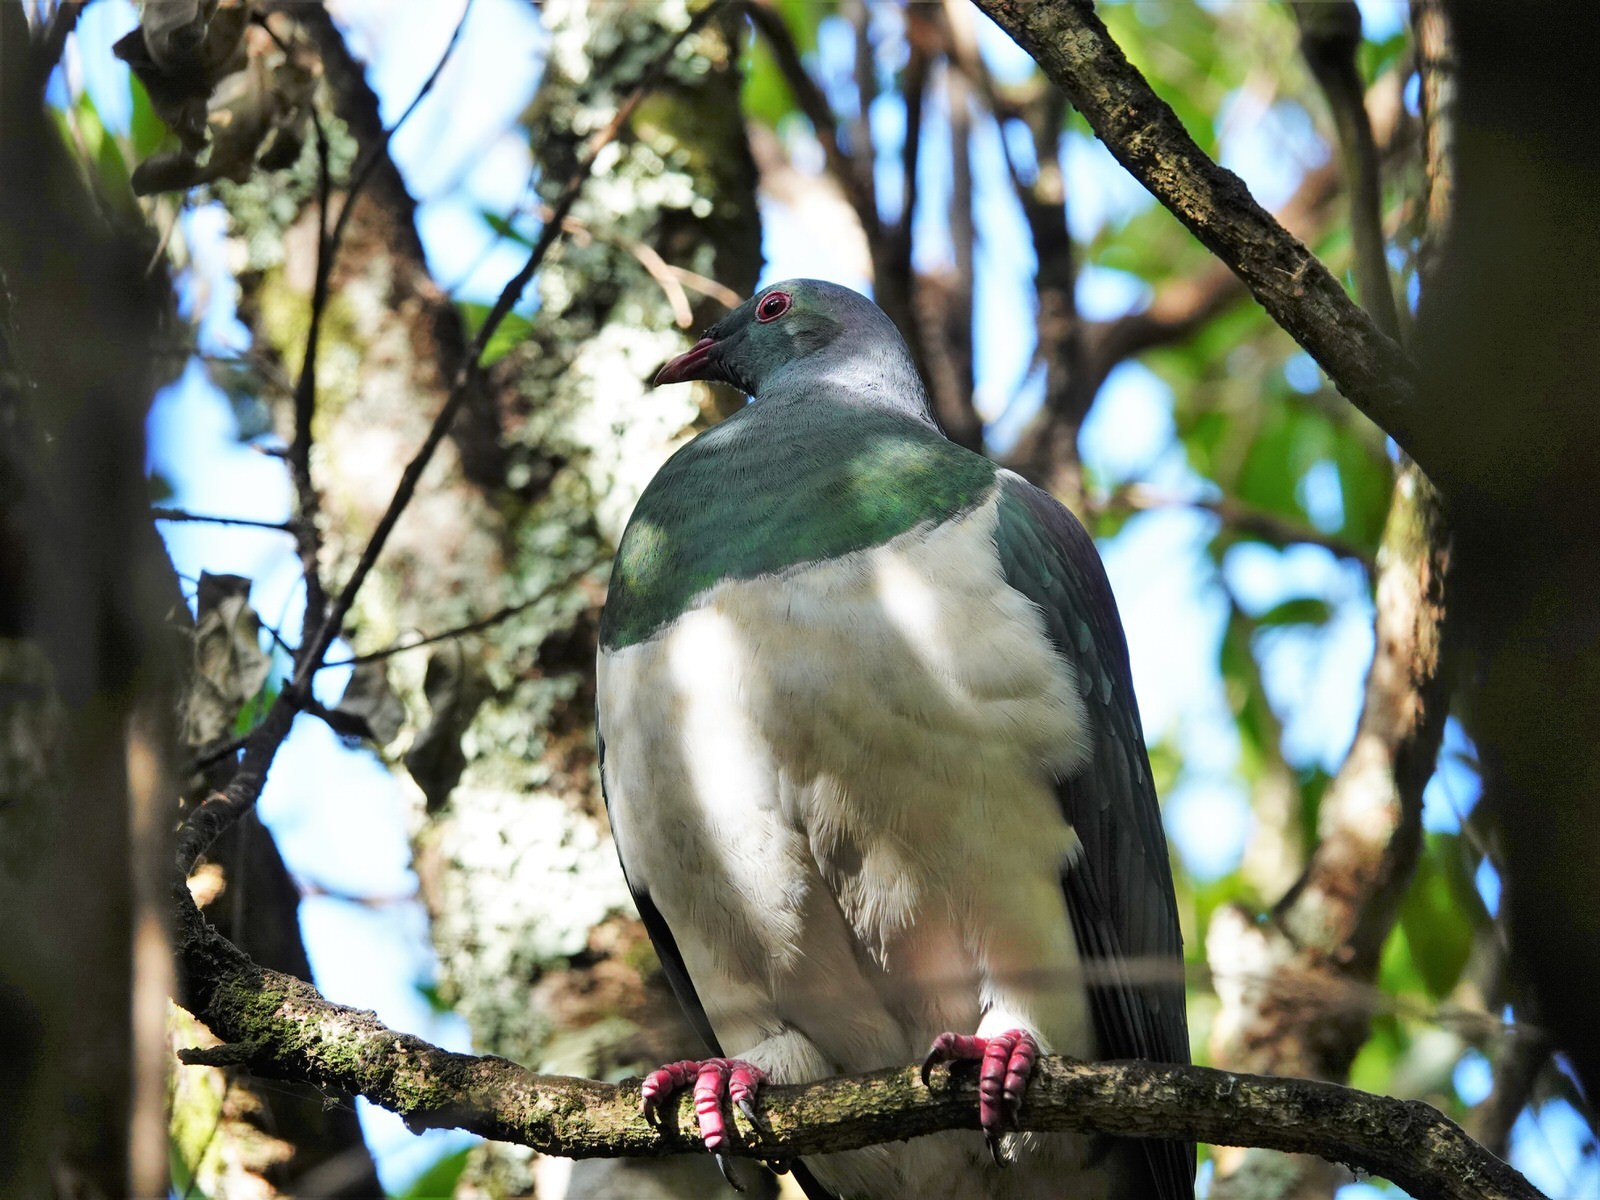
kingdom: Animalia
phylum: Chordata
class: Aves
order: Columbiformes
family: Columbidae
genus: Hemiphaga
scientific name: Hemiphaga novaeseelandiae
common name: New zealand pigeon
